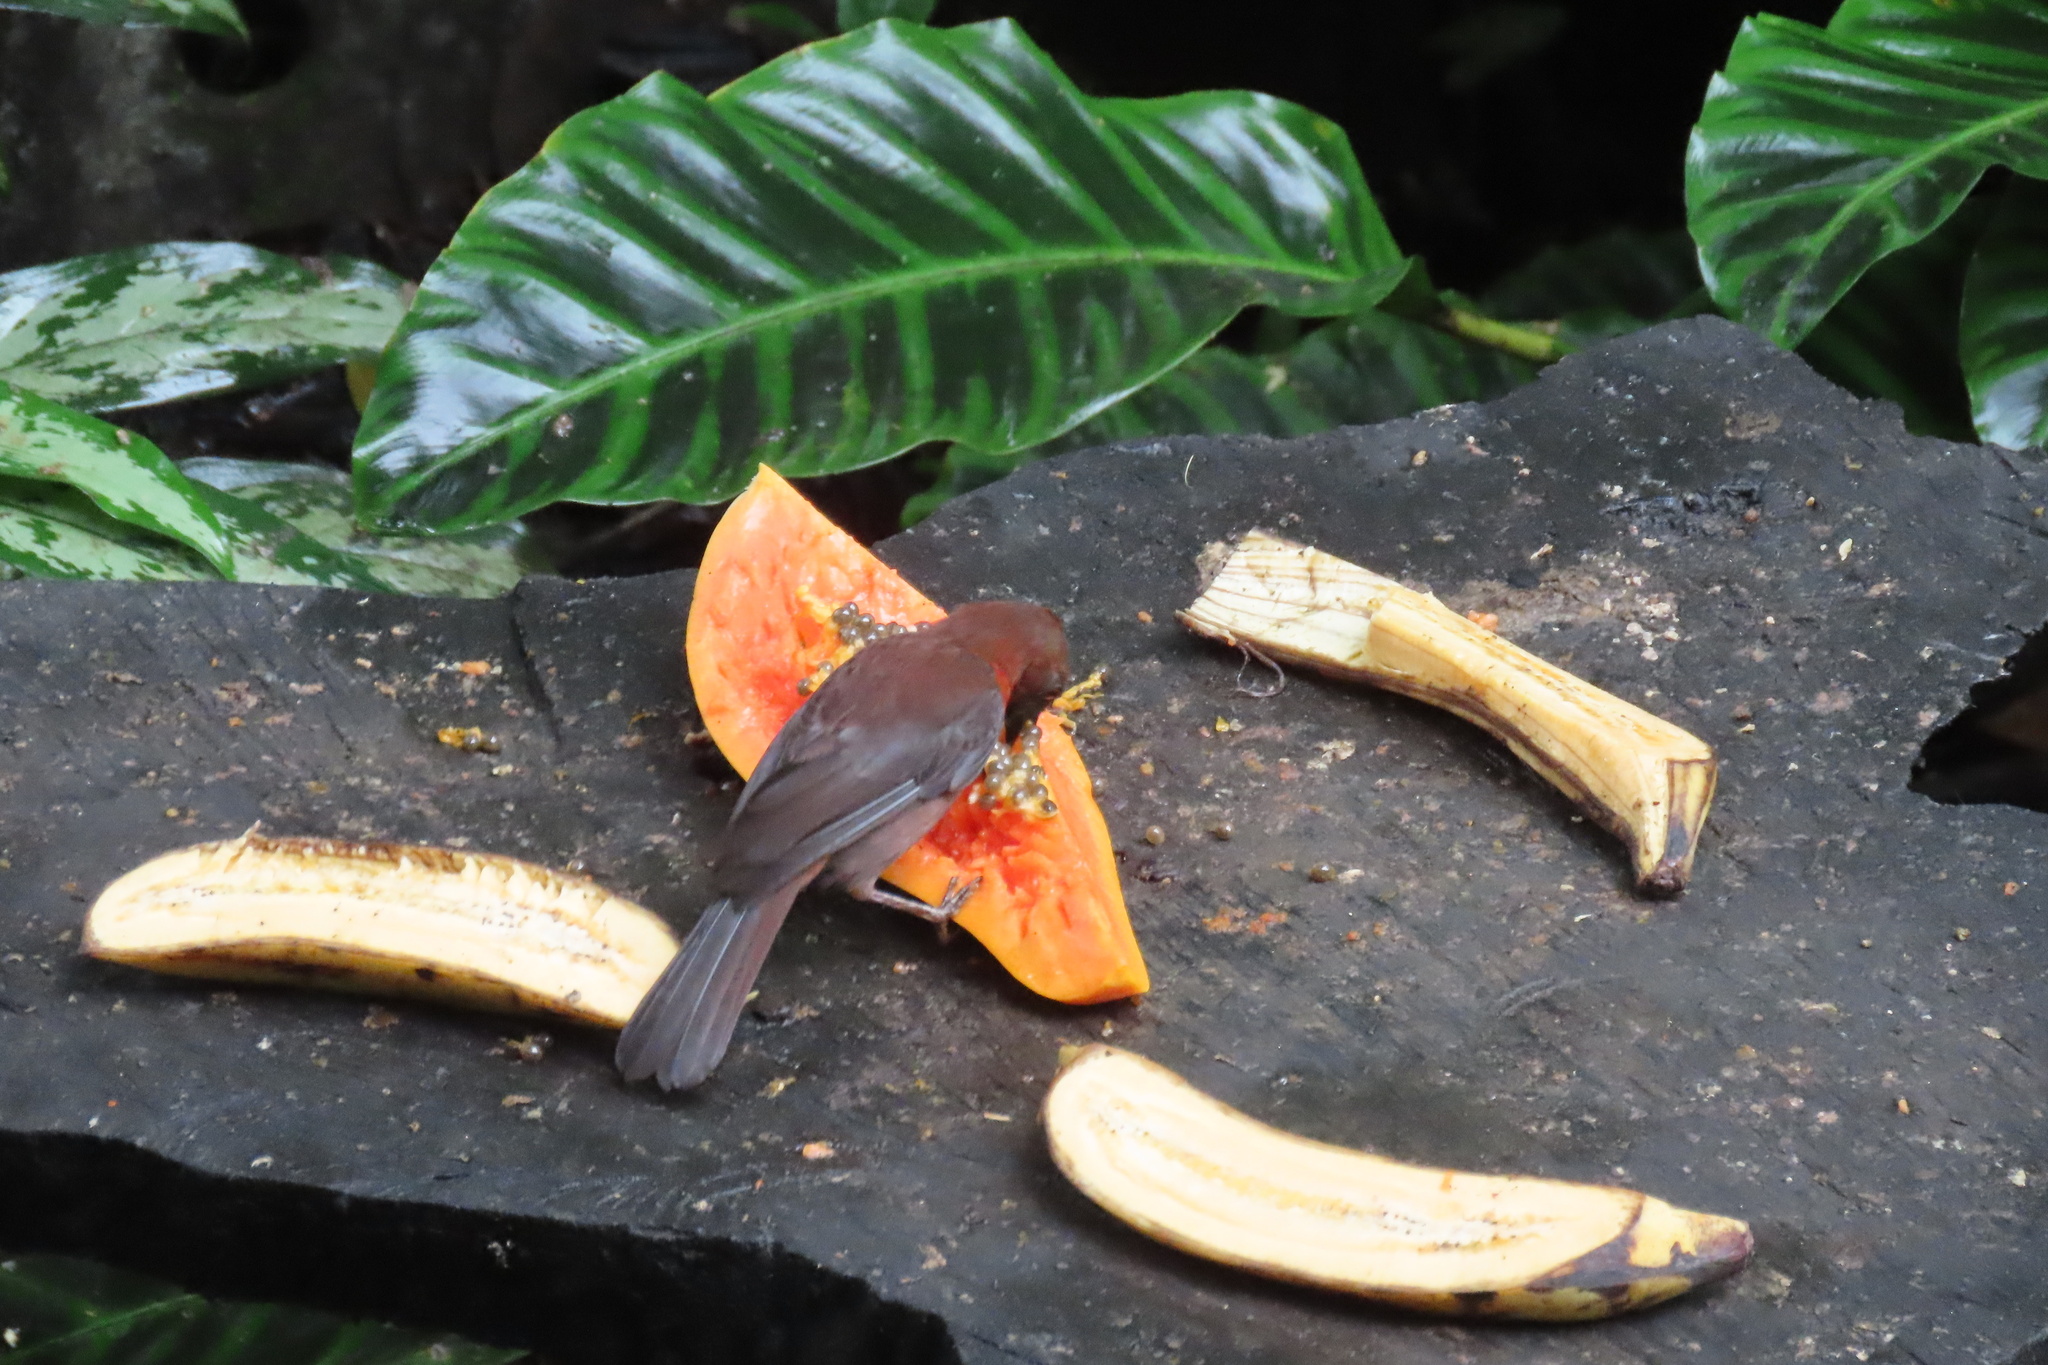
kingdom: Animalia
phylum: Chordata
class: Aves
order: Passeriformes
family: Cardinalidae
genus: Habia
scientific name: Habia fuscicauda
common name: Red-throated ant-tanager
